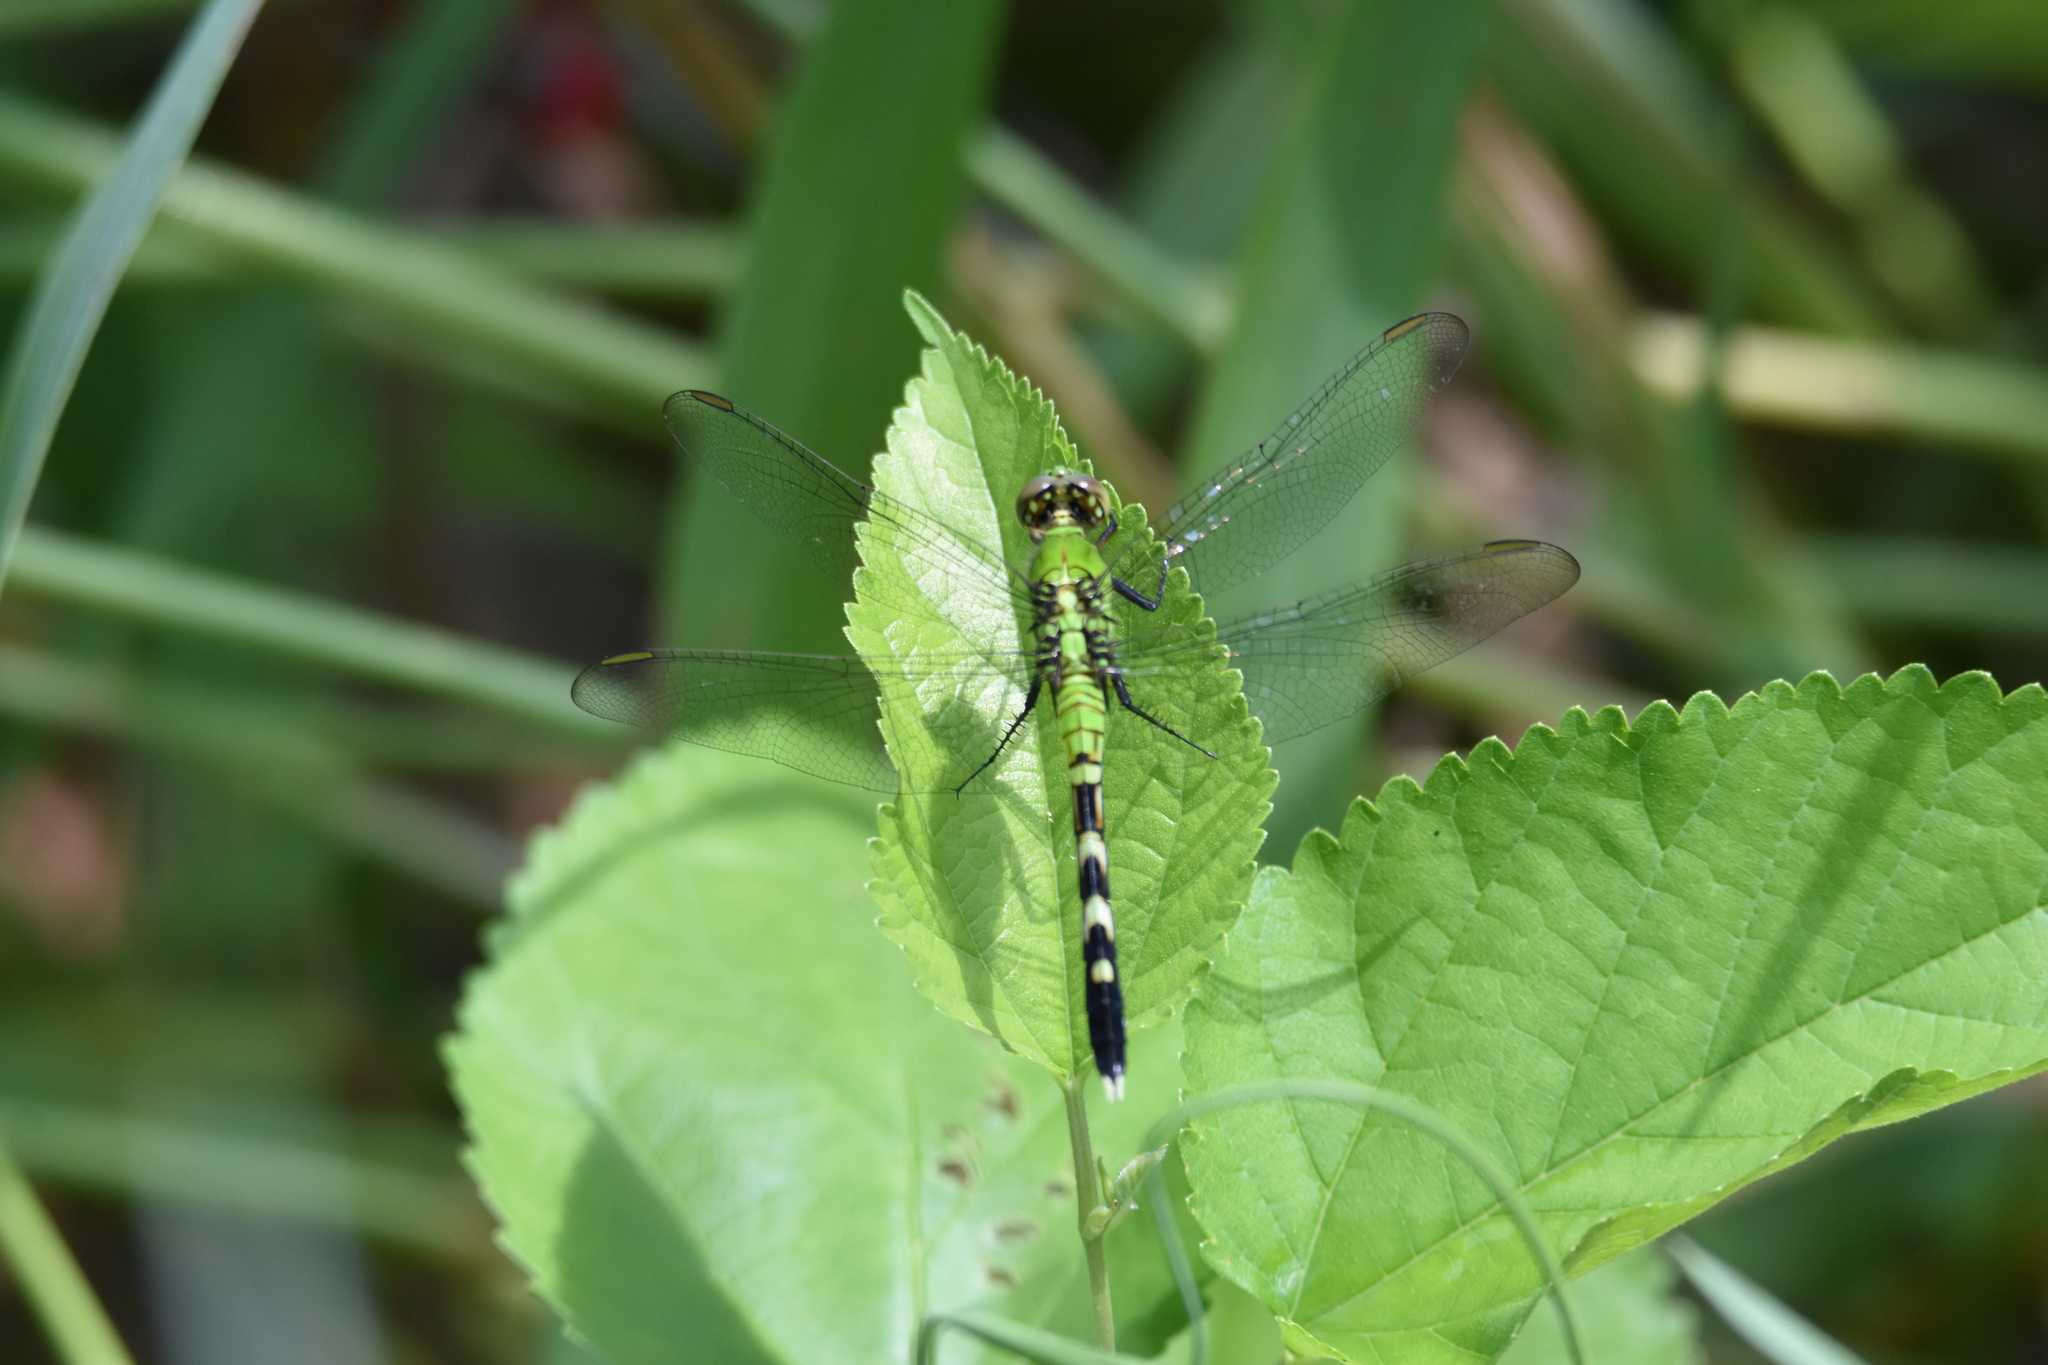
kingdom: Animalia
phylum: Arthropoda
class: Insecta
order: Odonata
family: Libellulidae
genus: Erythemis
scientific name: Erythemis simplicicollis
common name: Eastern pondhawk
